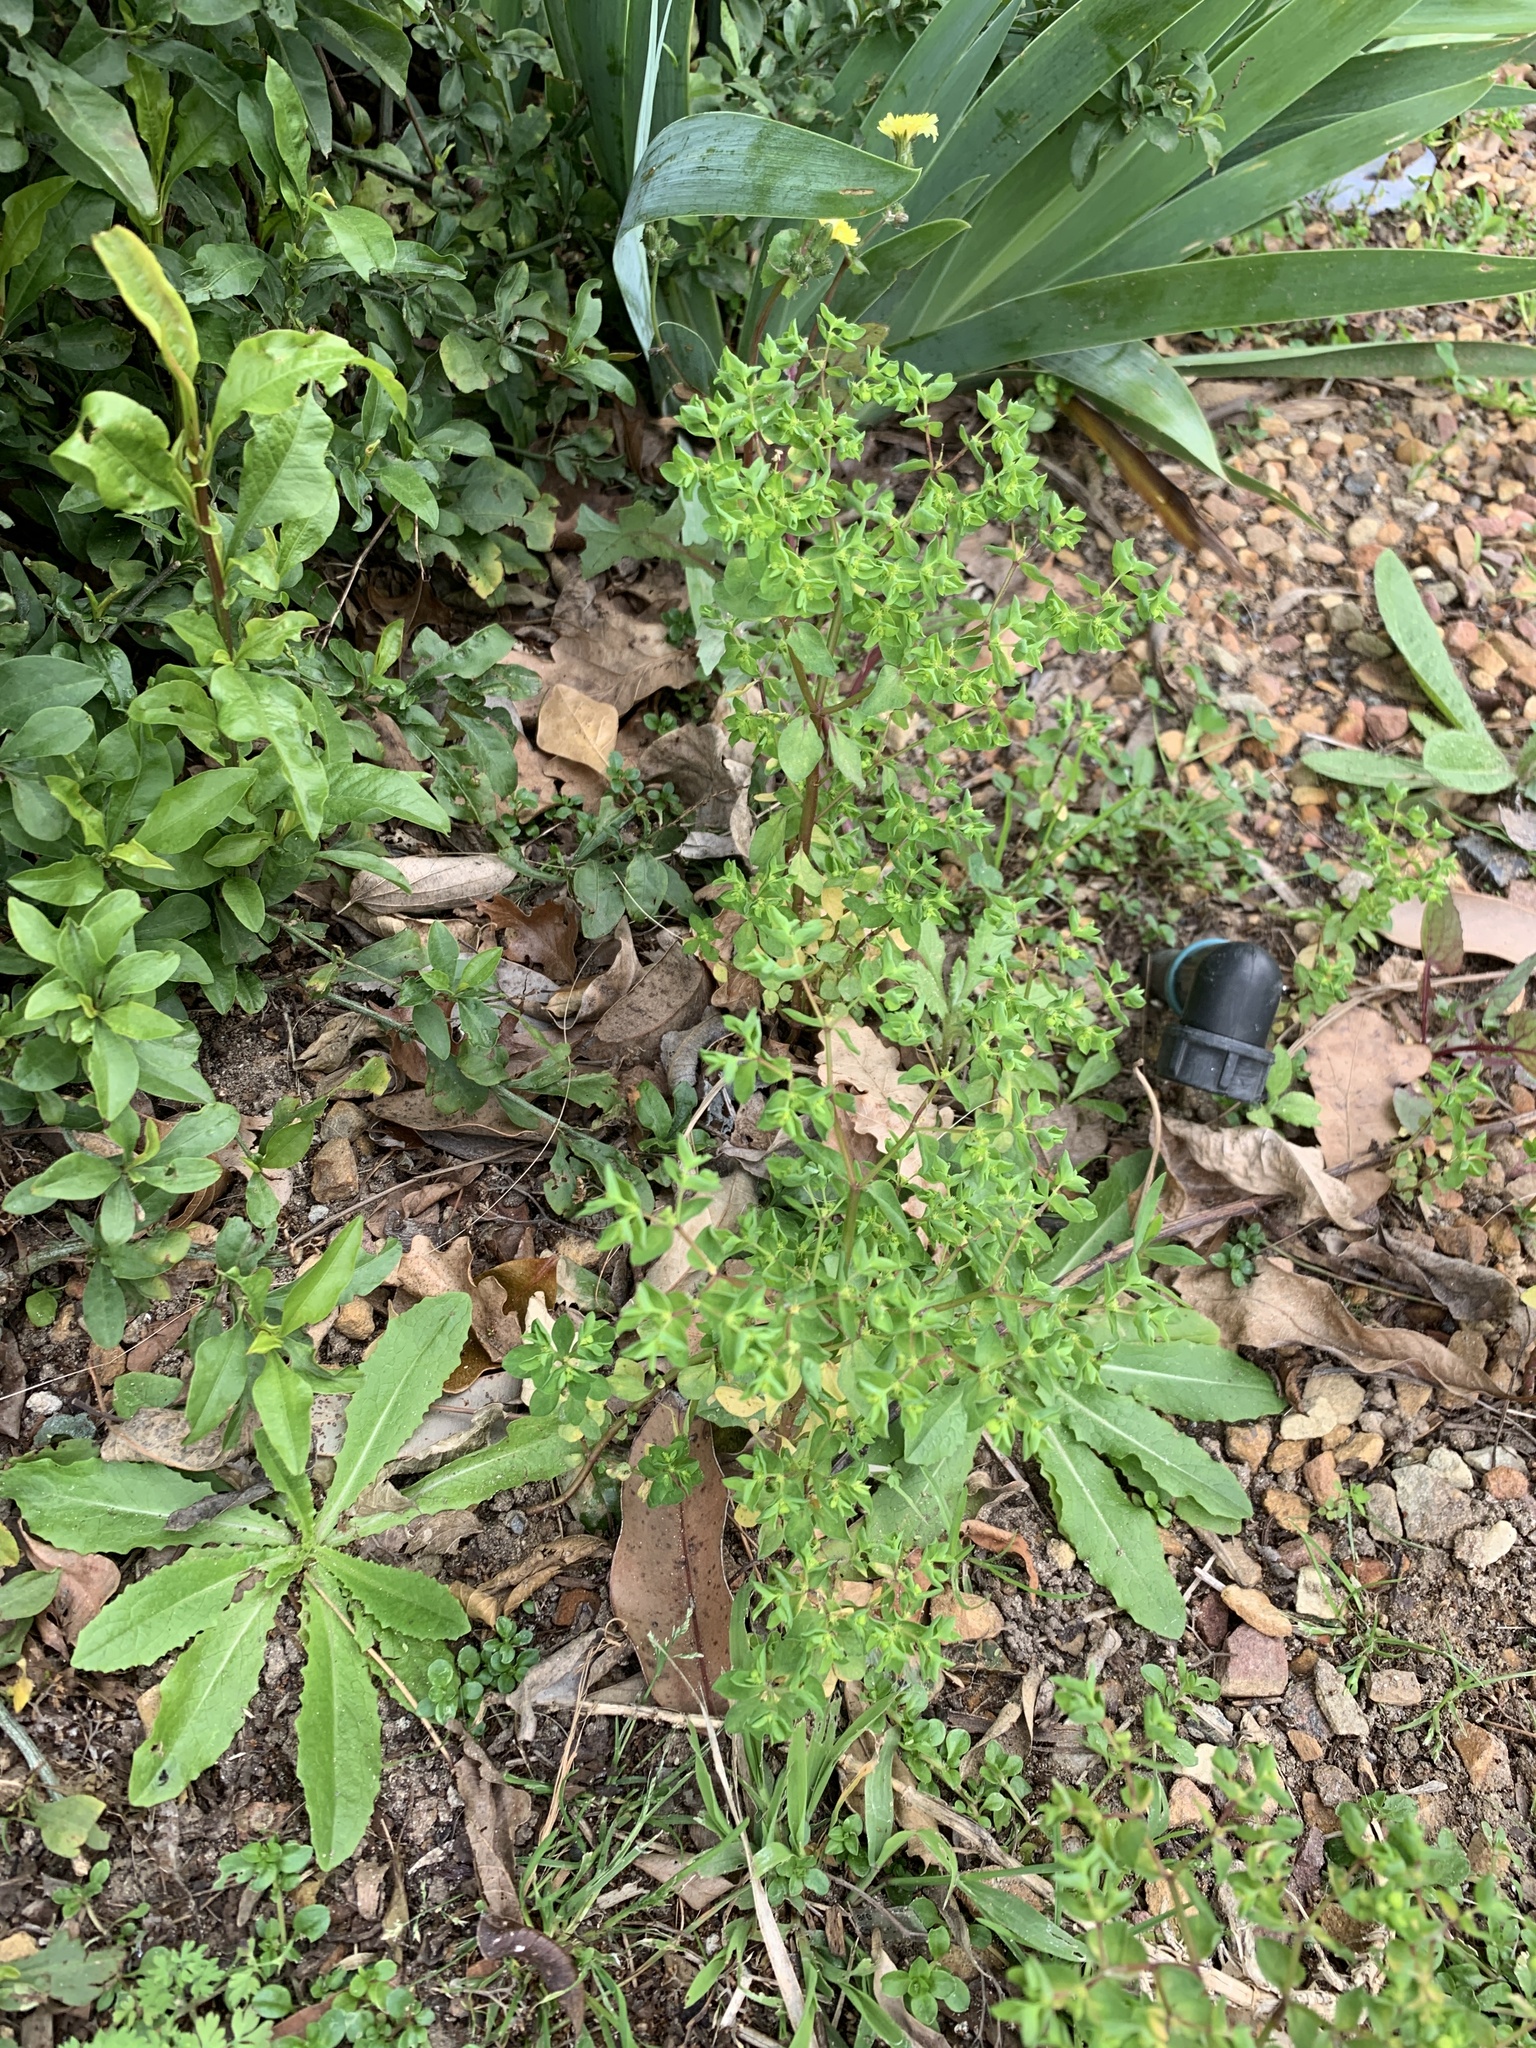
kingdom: Plantae
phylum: Tracheophyta
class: Magnoliopsida
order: Malpighiales
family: Euphorbiaceae
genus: Euphorbia
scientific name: Euphorbia peplus
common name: Petty spurge
